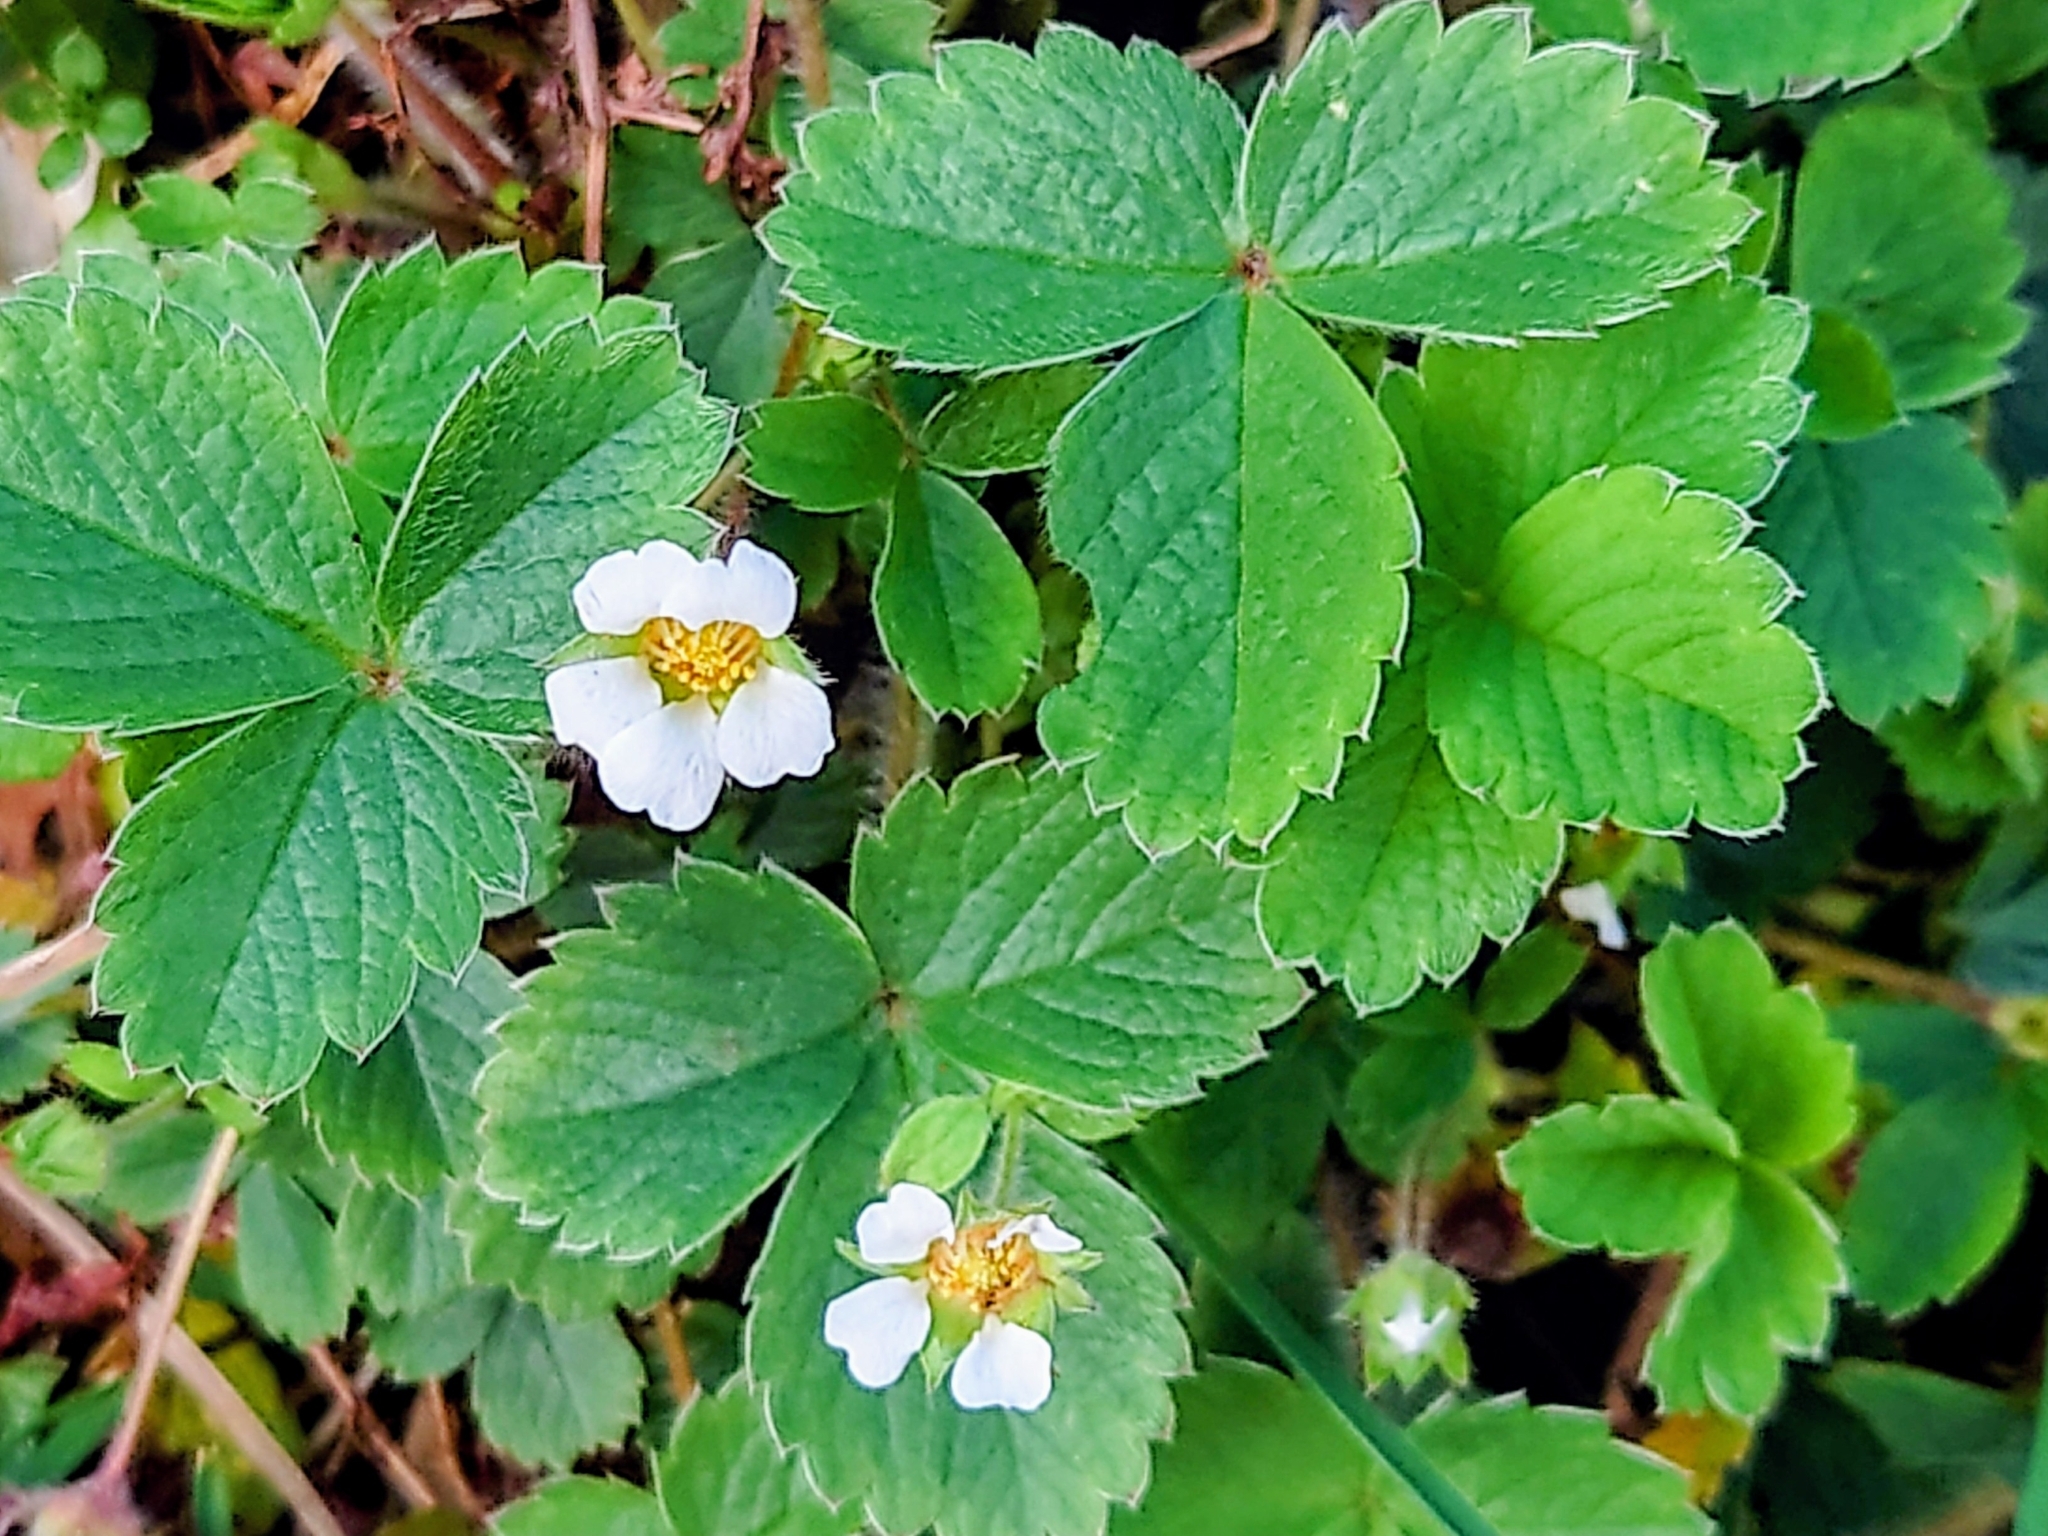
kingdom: Plantae
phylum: Tracheophyta
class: Magnoliopsida
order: Rosales
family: Rosaceae
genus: Potentilla
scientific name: Potentilla sterilis
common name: Barren strawberry
